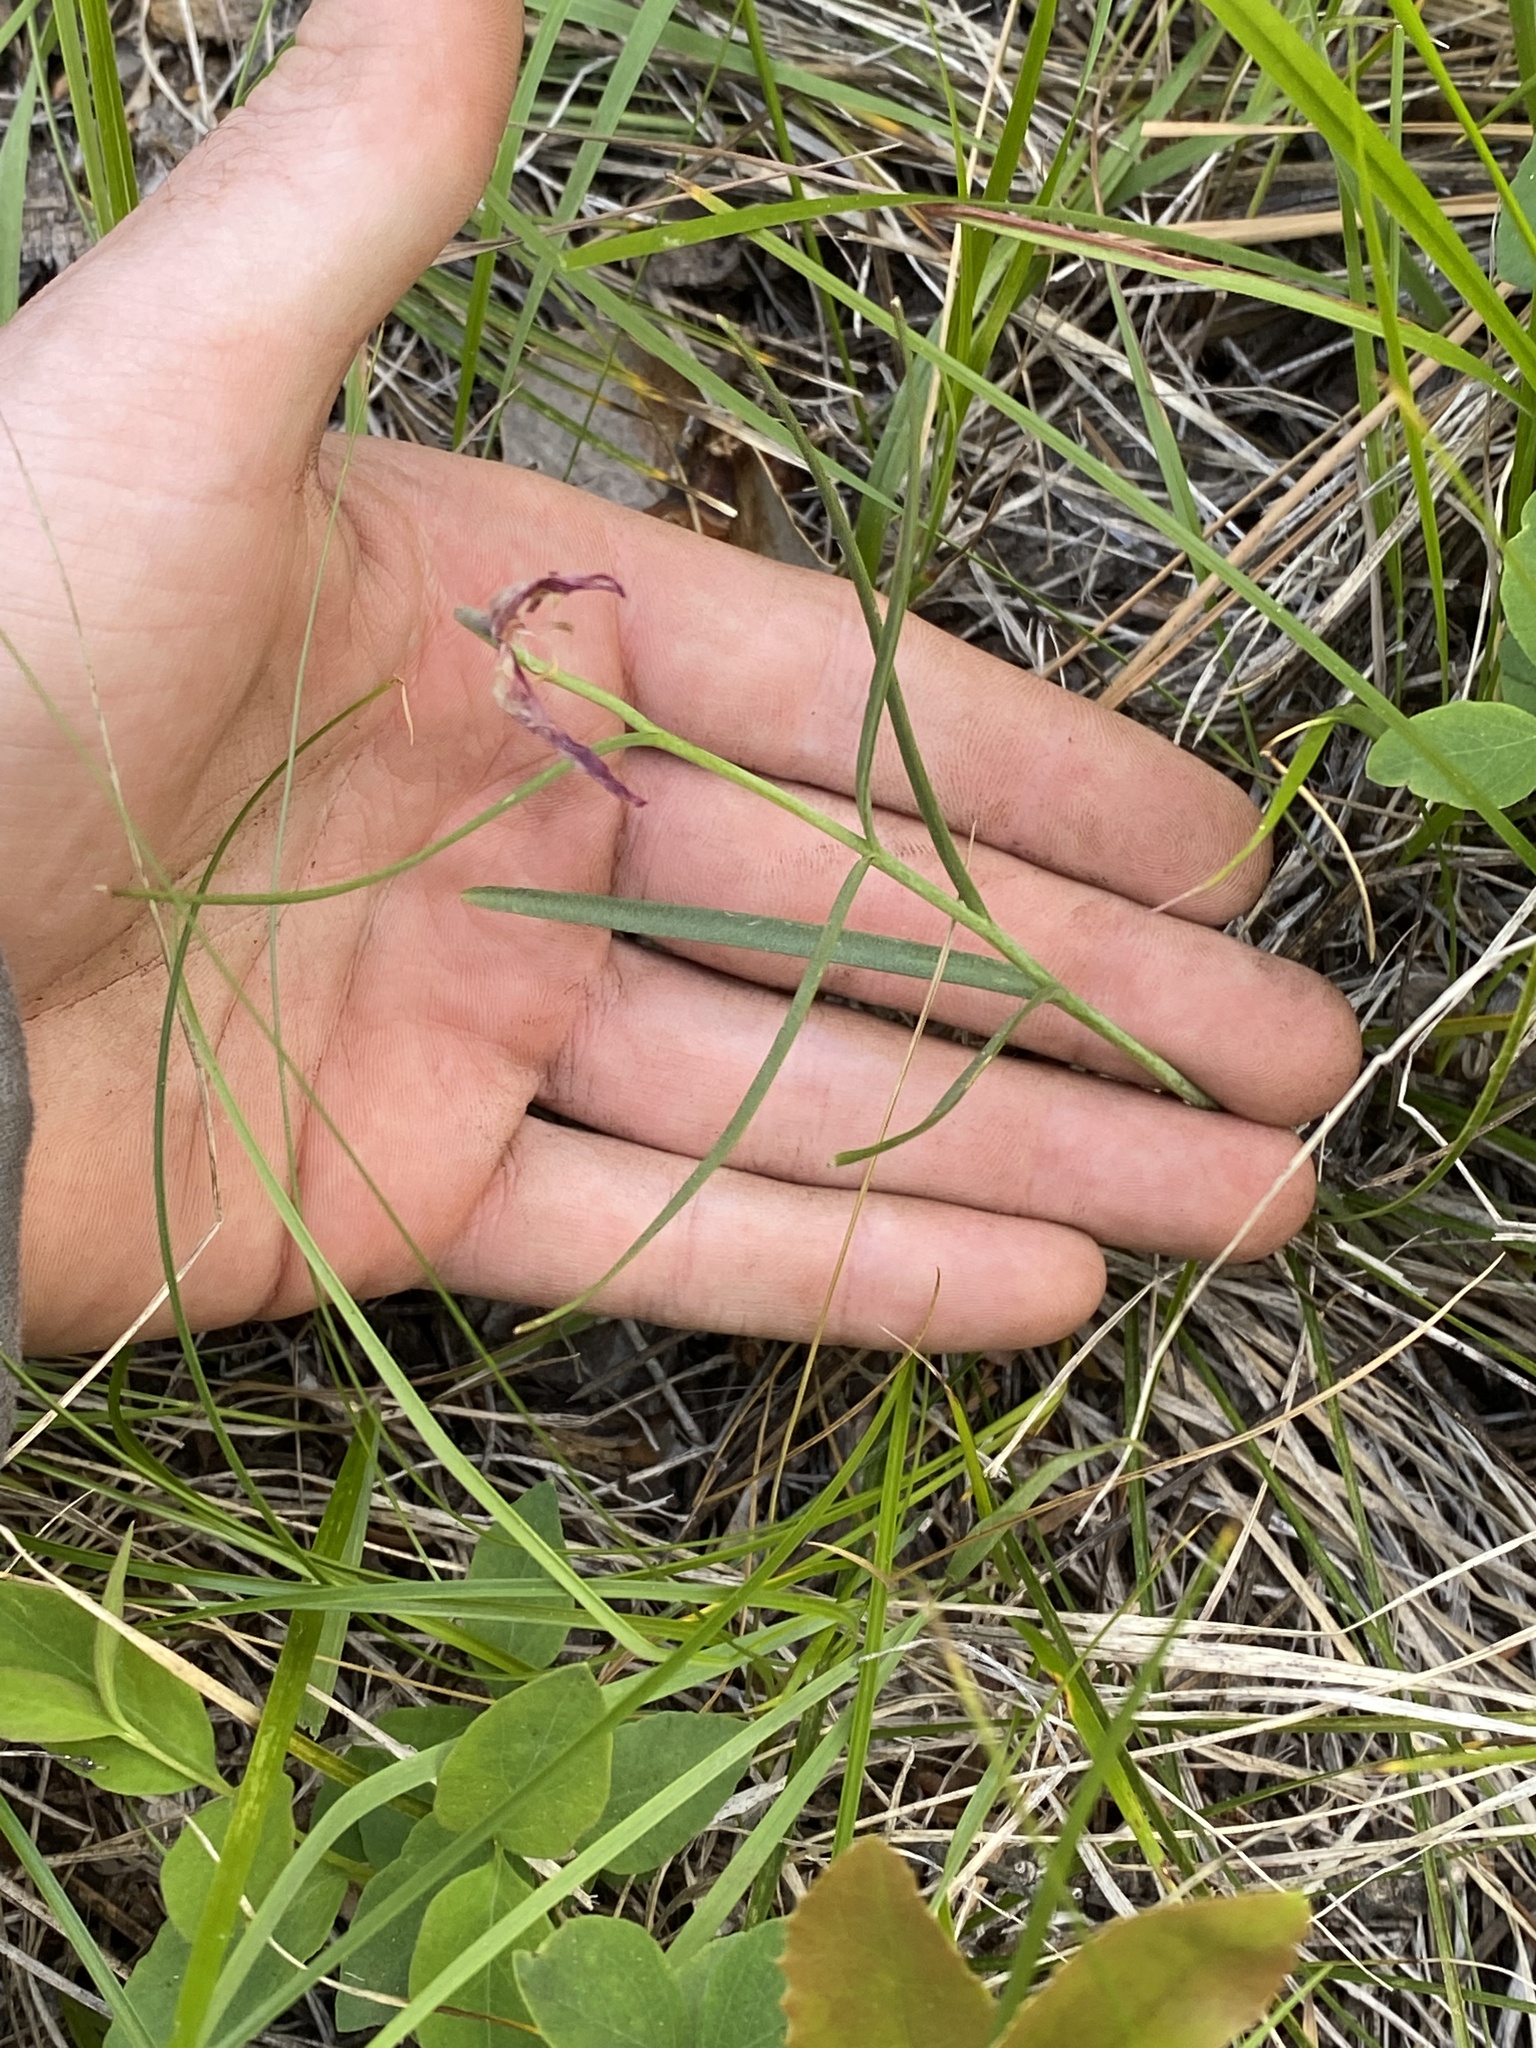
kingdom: Plantae
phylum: Tracheophyta
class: Liliopsida
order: Liliales
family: Liliaceae
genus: Fritillaria
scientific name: Fritillaria atropurpurea
